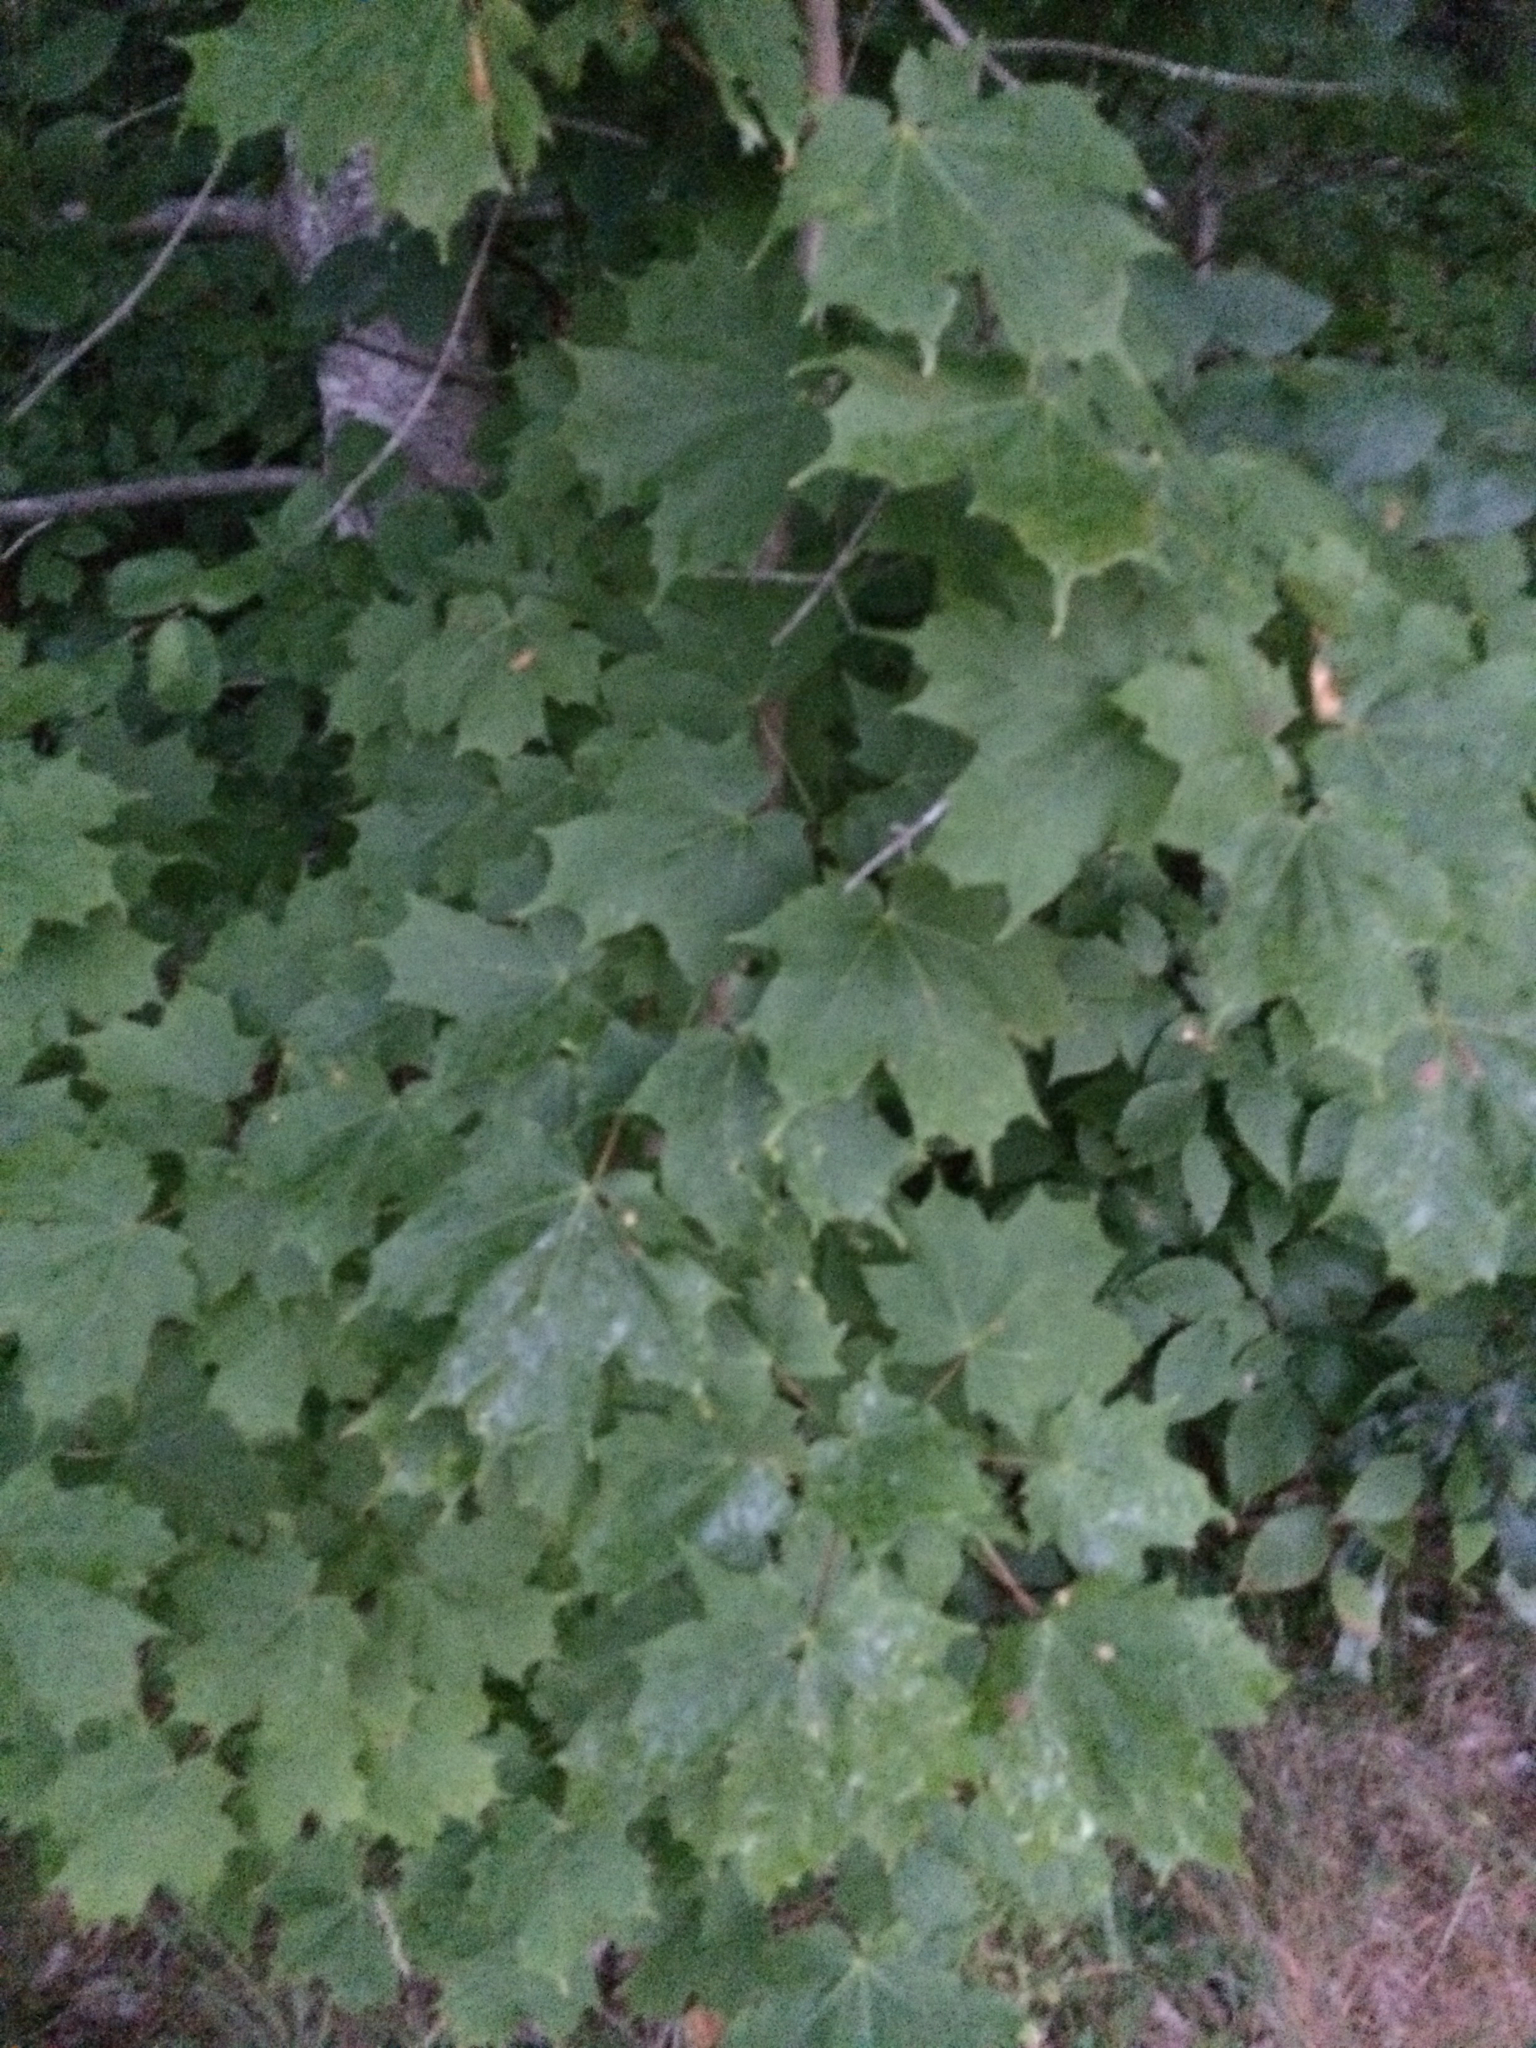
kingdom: Plantae
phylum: Tracheophyta
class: Magnoliopsida
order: Sapindales
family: Sapindaceae
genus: Acer
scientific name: Acer saccharum
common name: Sugar maple
